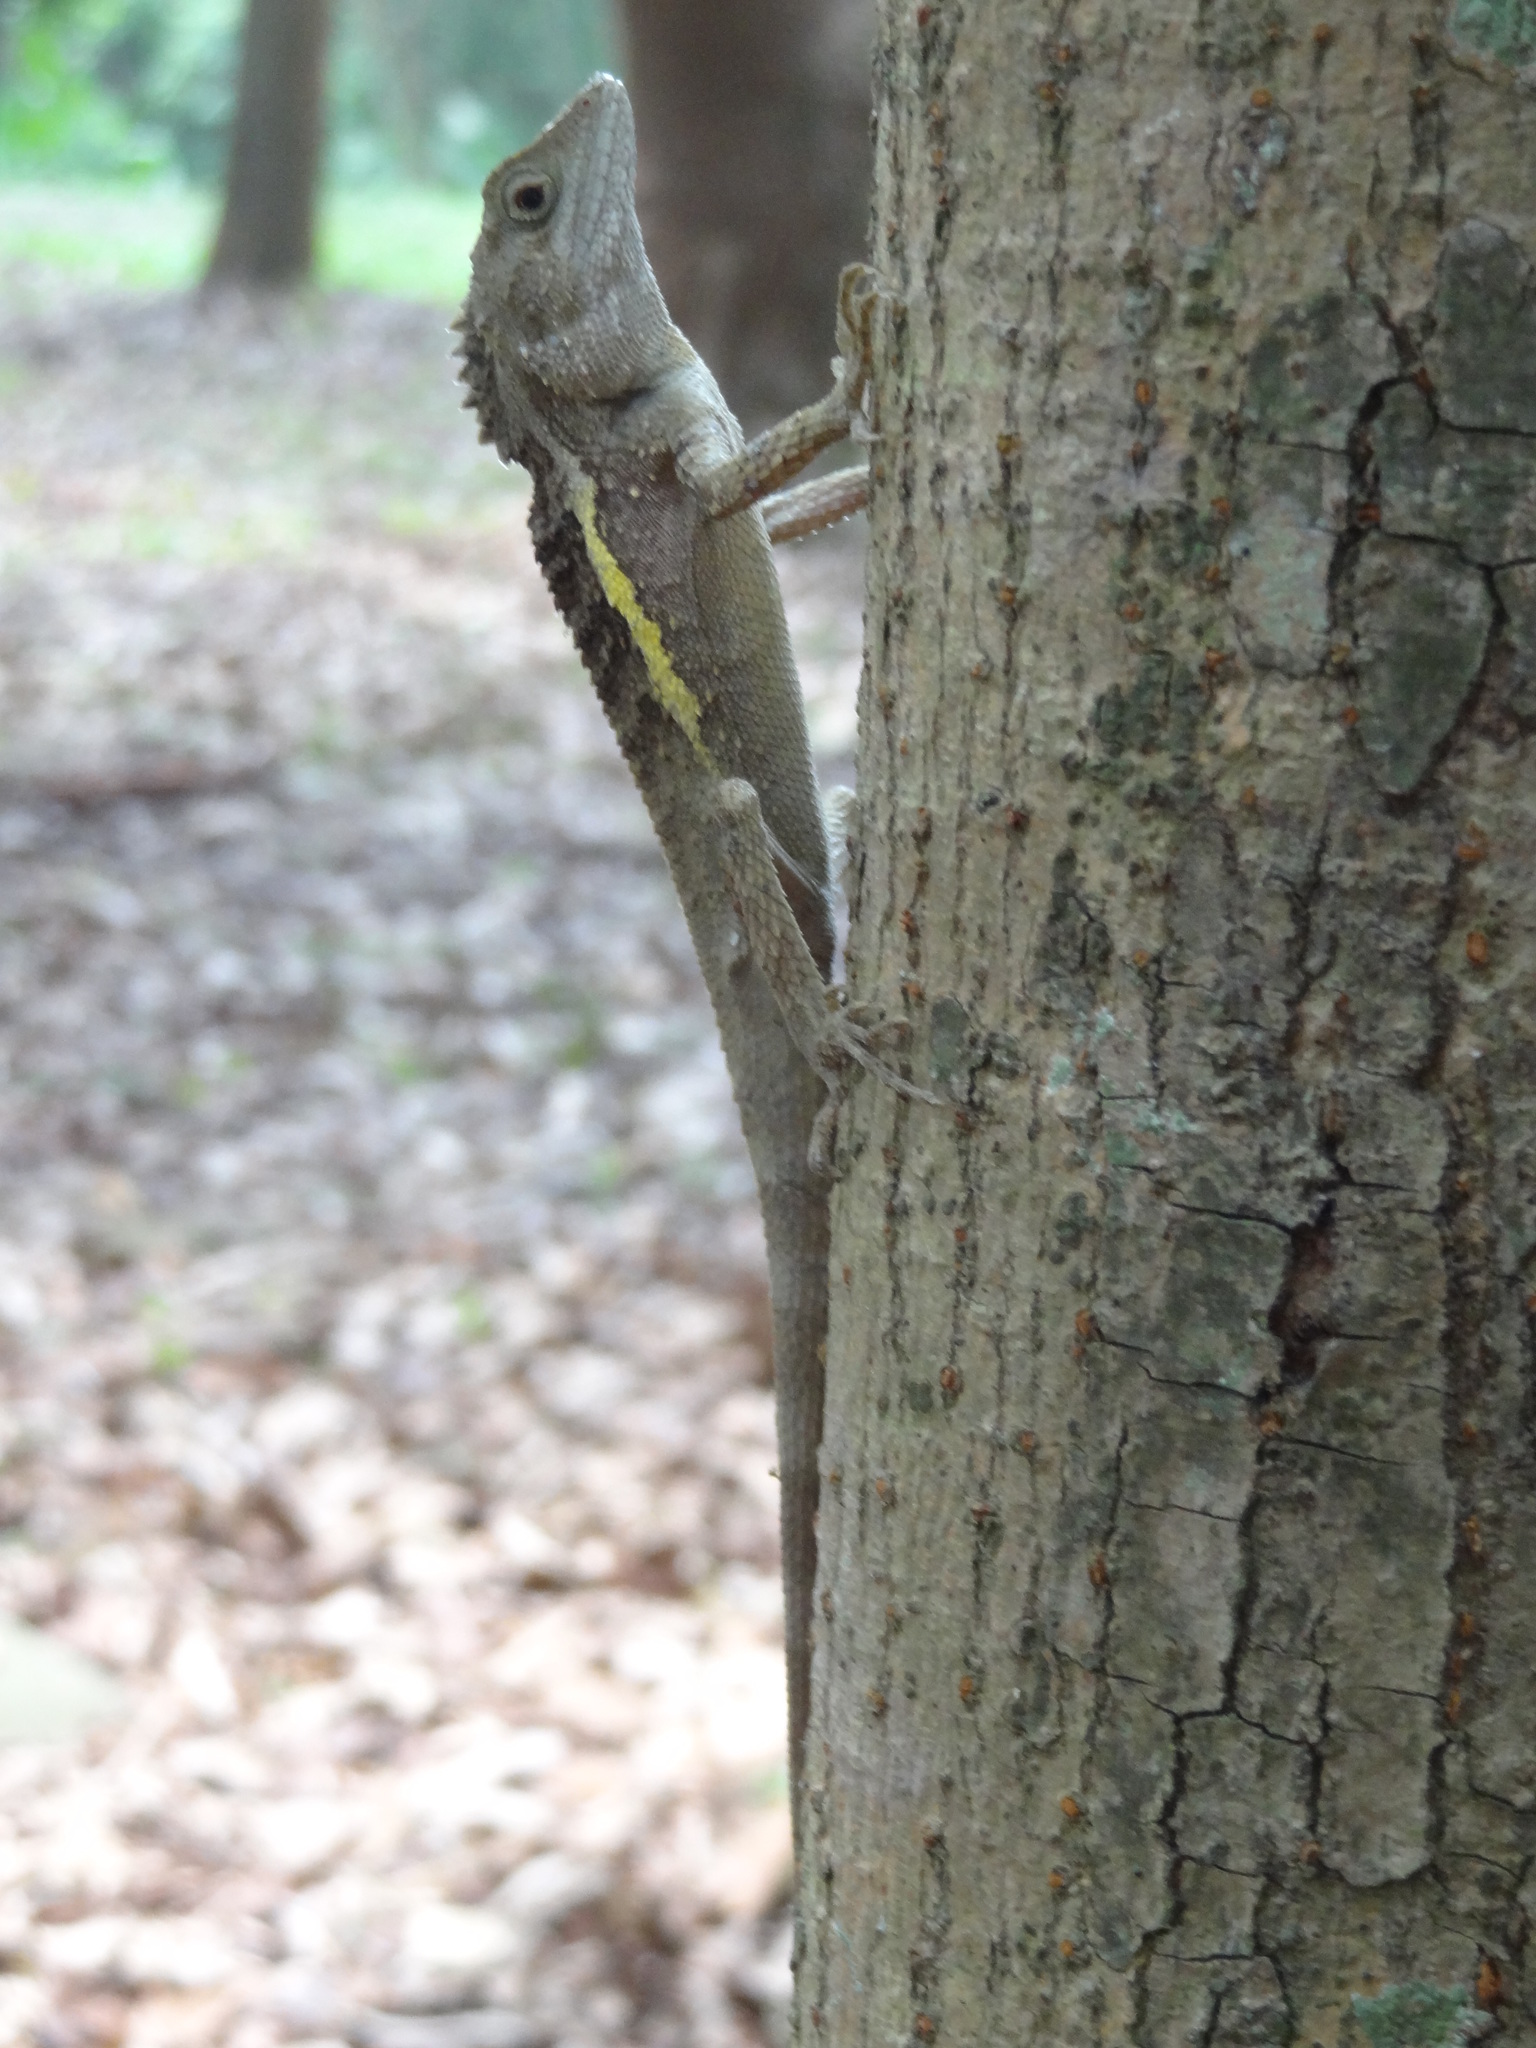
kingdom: Animalia
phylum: Chordata
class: Squamata
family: Agamidae
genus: Diploderma
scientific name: Diploderma swinhonis
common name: Taiwan japalure
